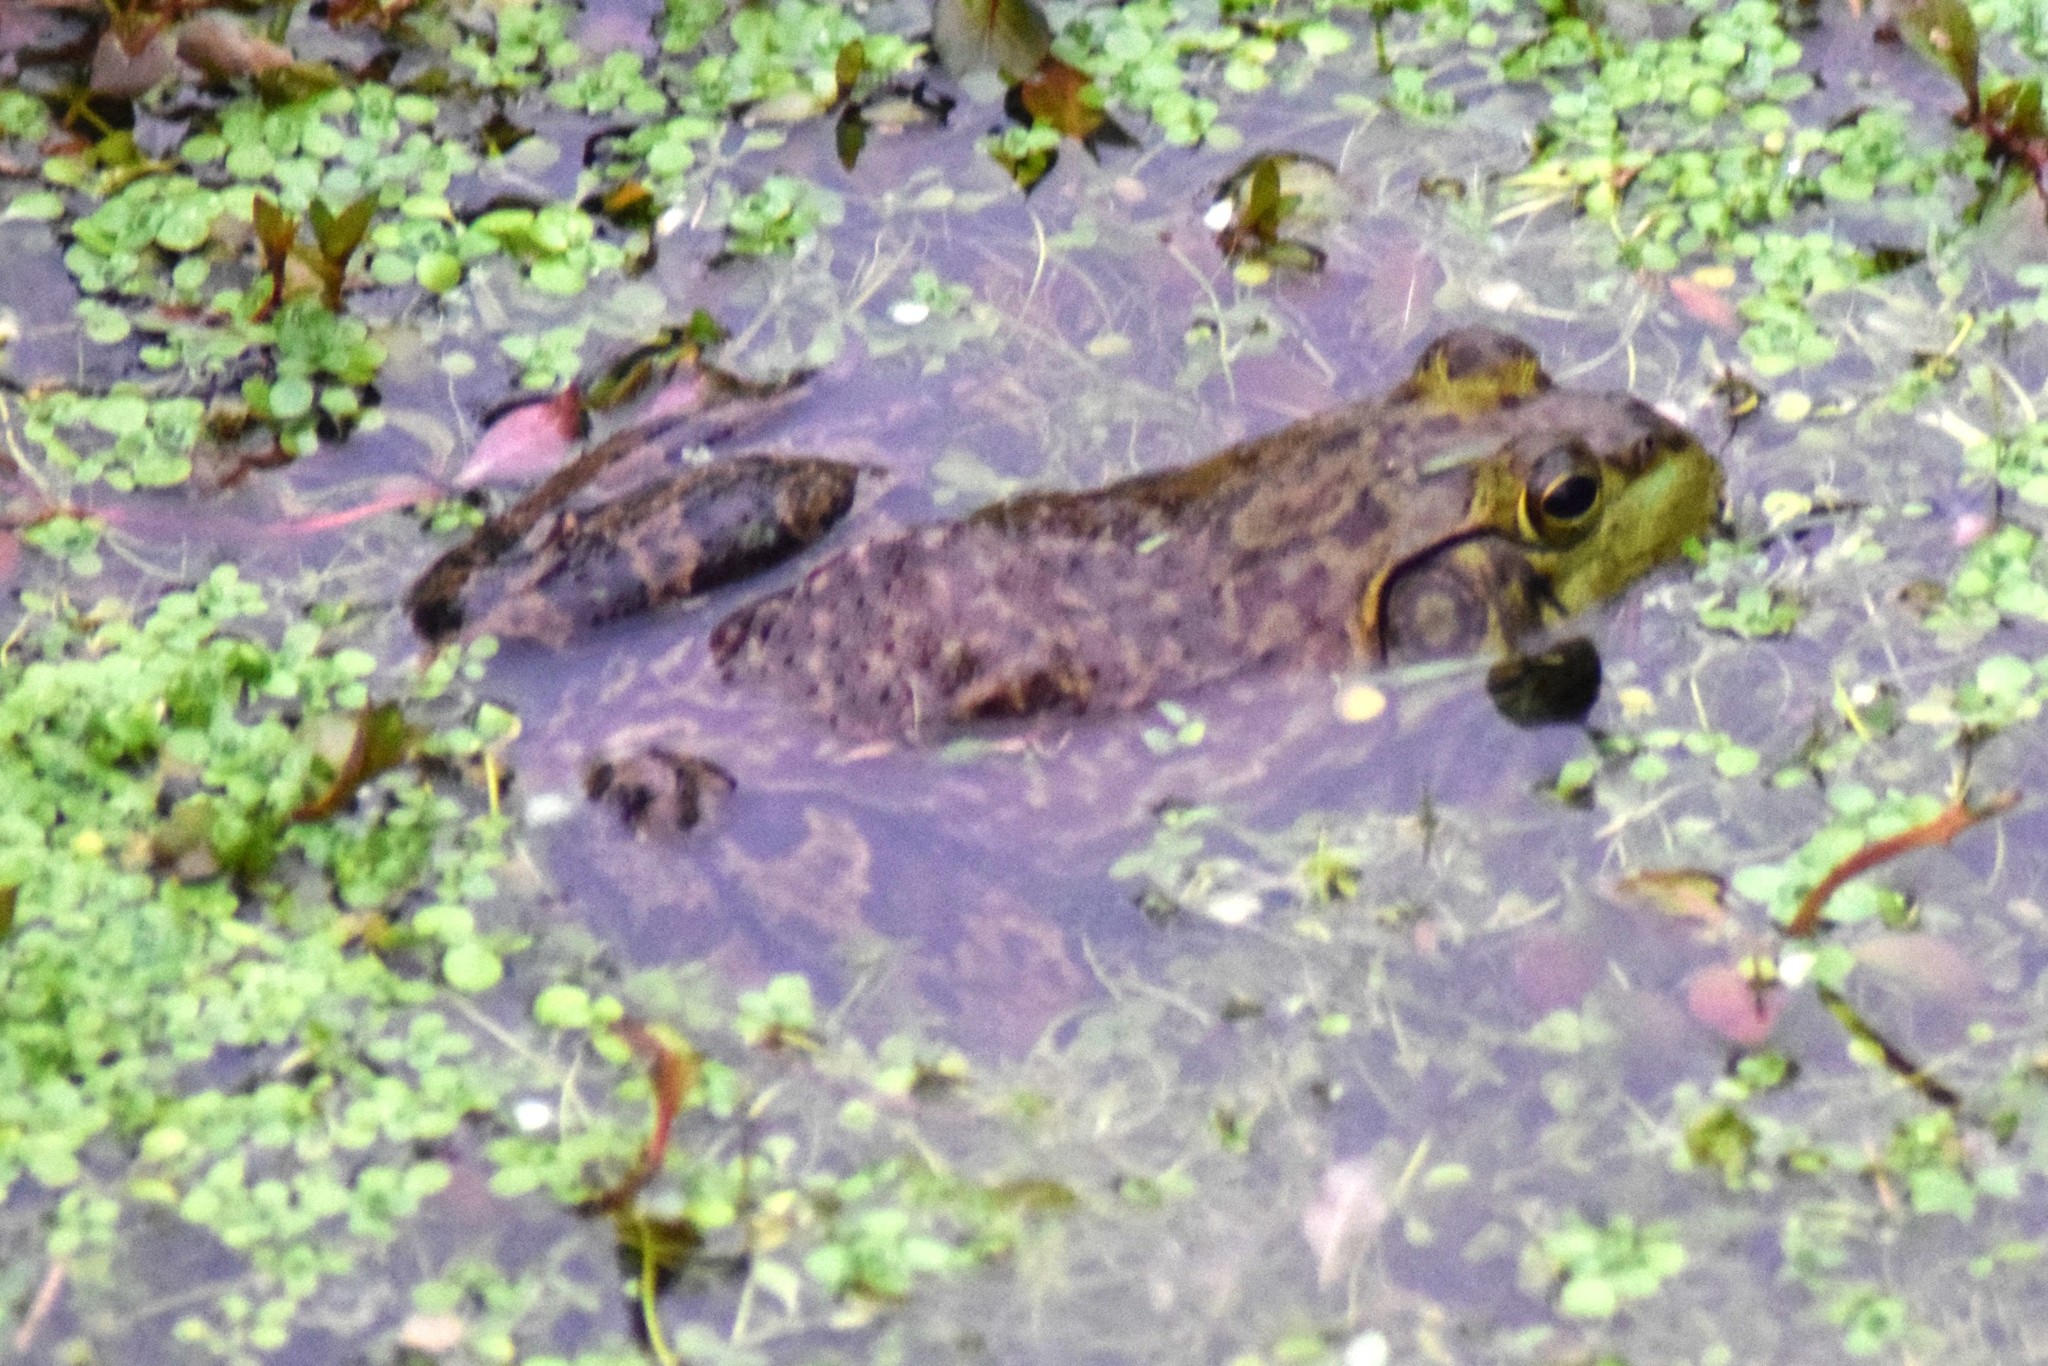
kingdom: Animalia
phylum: Chordata
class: Amphibia
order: Anura
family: Ranidae
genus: Lithobates
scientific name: Lithobates catesbeianus
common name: American bullfrog
